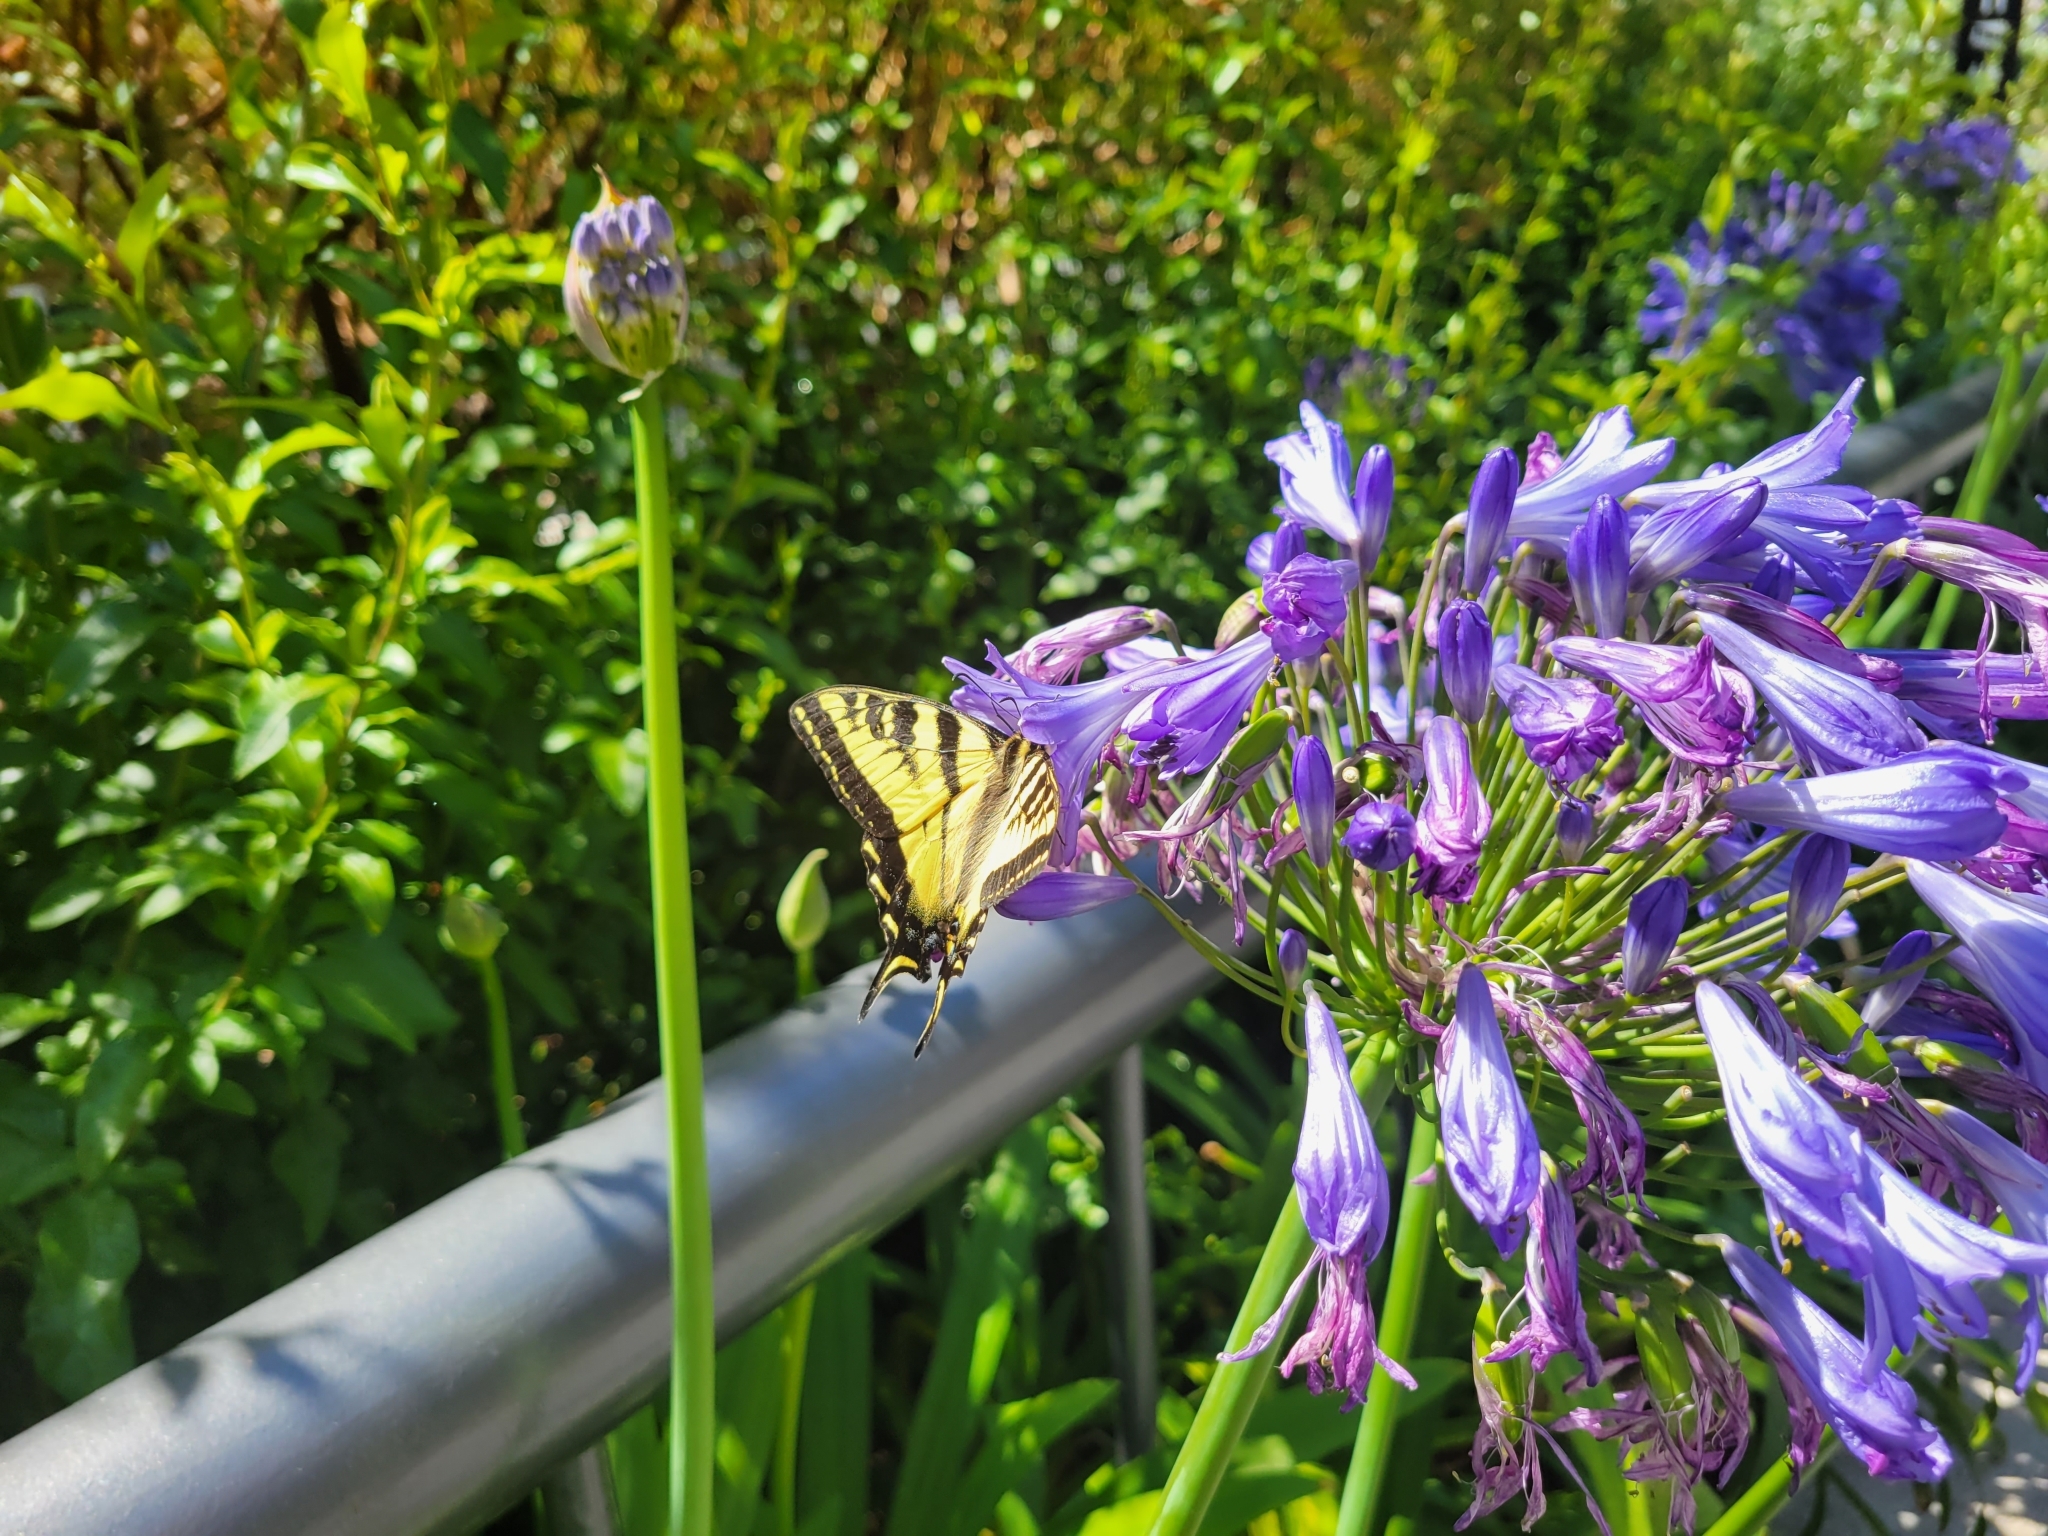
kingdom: Animalia
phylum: Arthropoda
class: Insecta
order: Lepidoptera
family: Papilionidae
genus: Papilio
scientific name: Papilio rutulus
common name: Western tiger swallowtail
